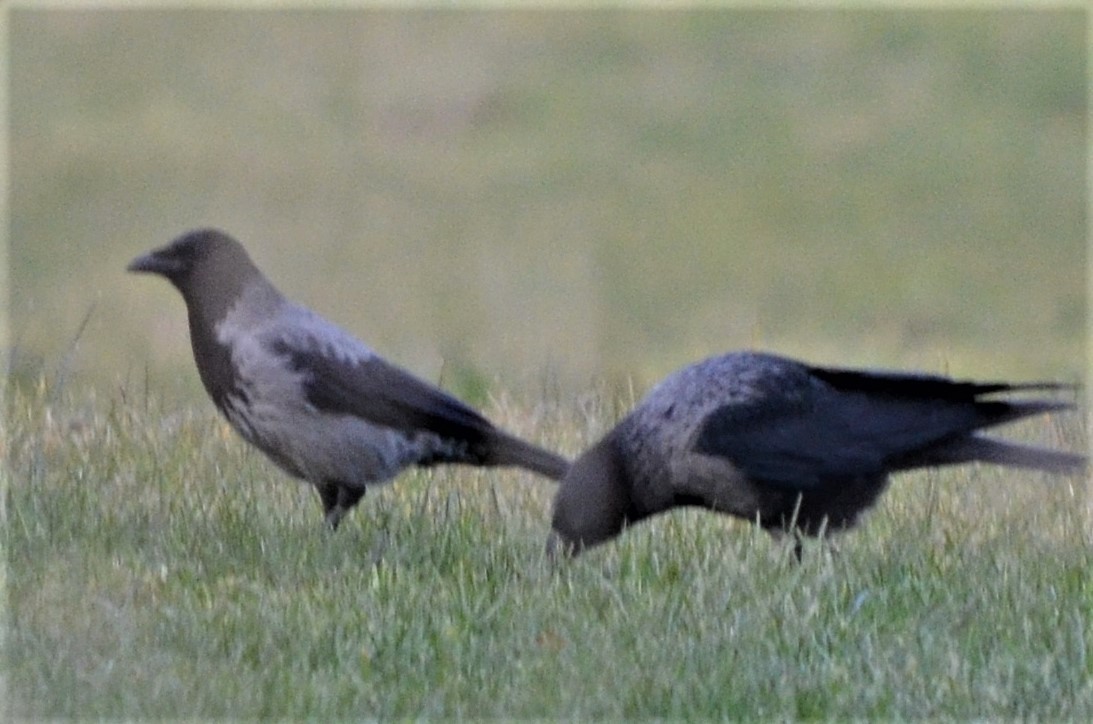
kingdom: Animalia
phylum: Chordata
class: Aves
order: Passeriformes
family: Corvidae
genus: Corvus
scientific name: Corvus cornix
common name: Hooded crow
